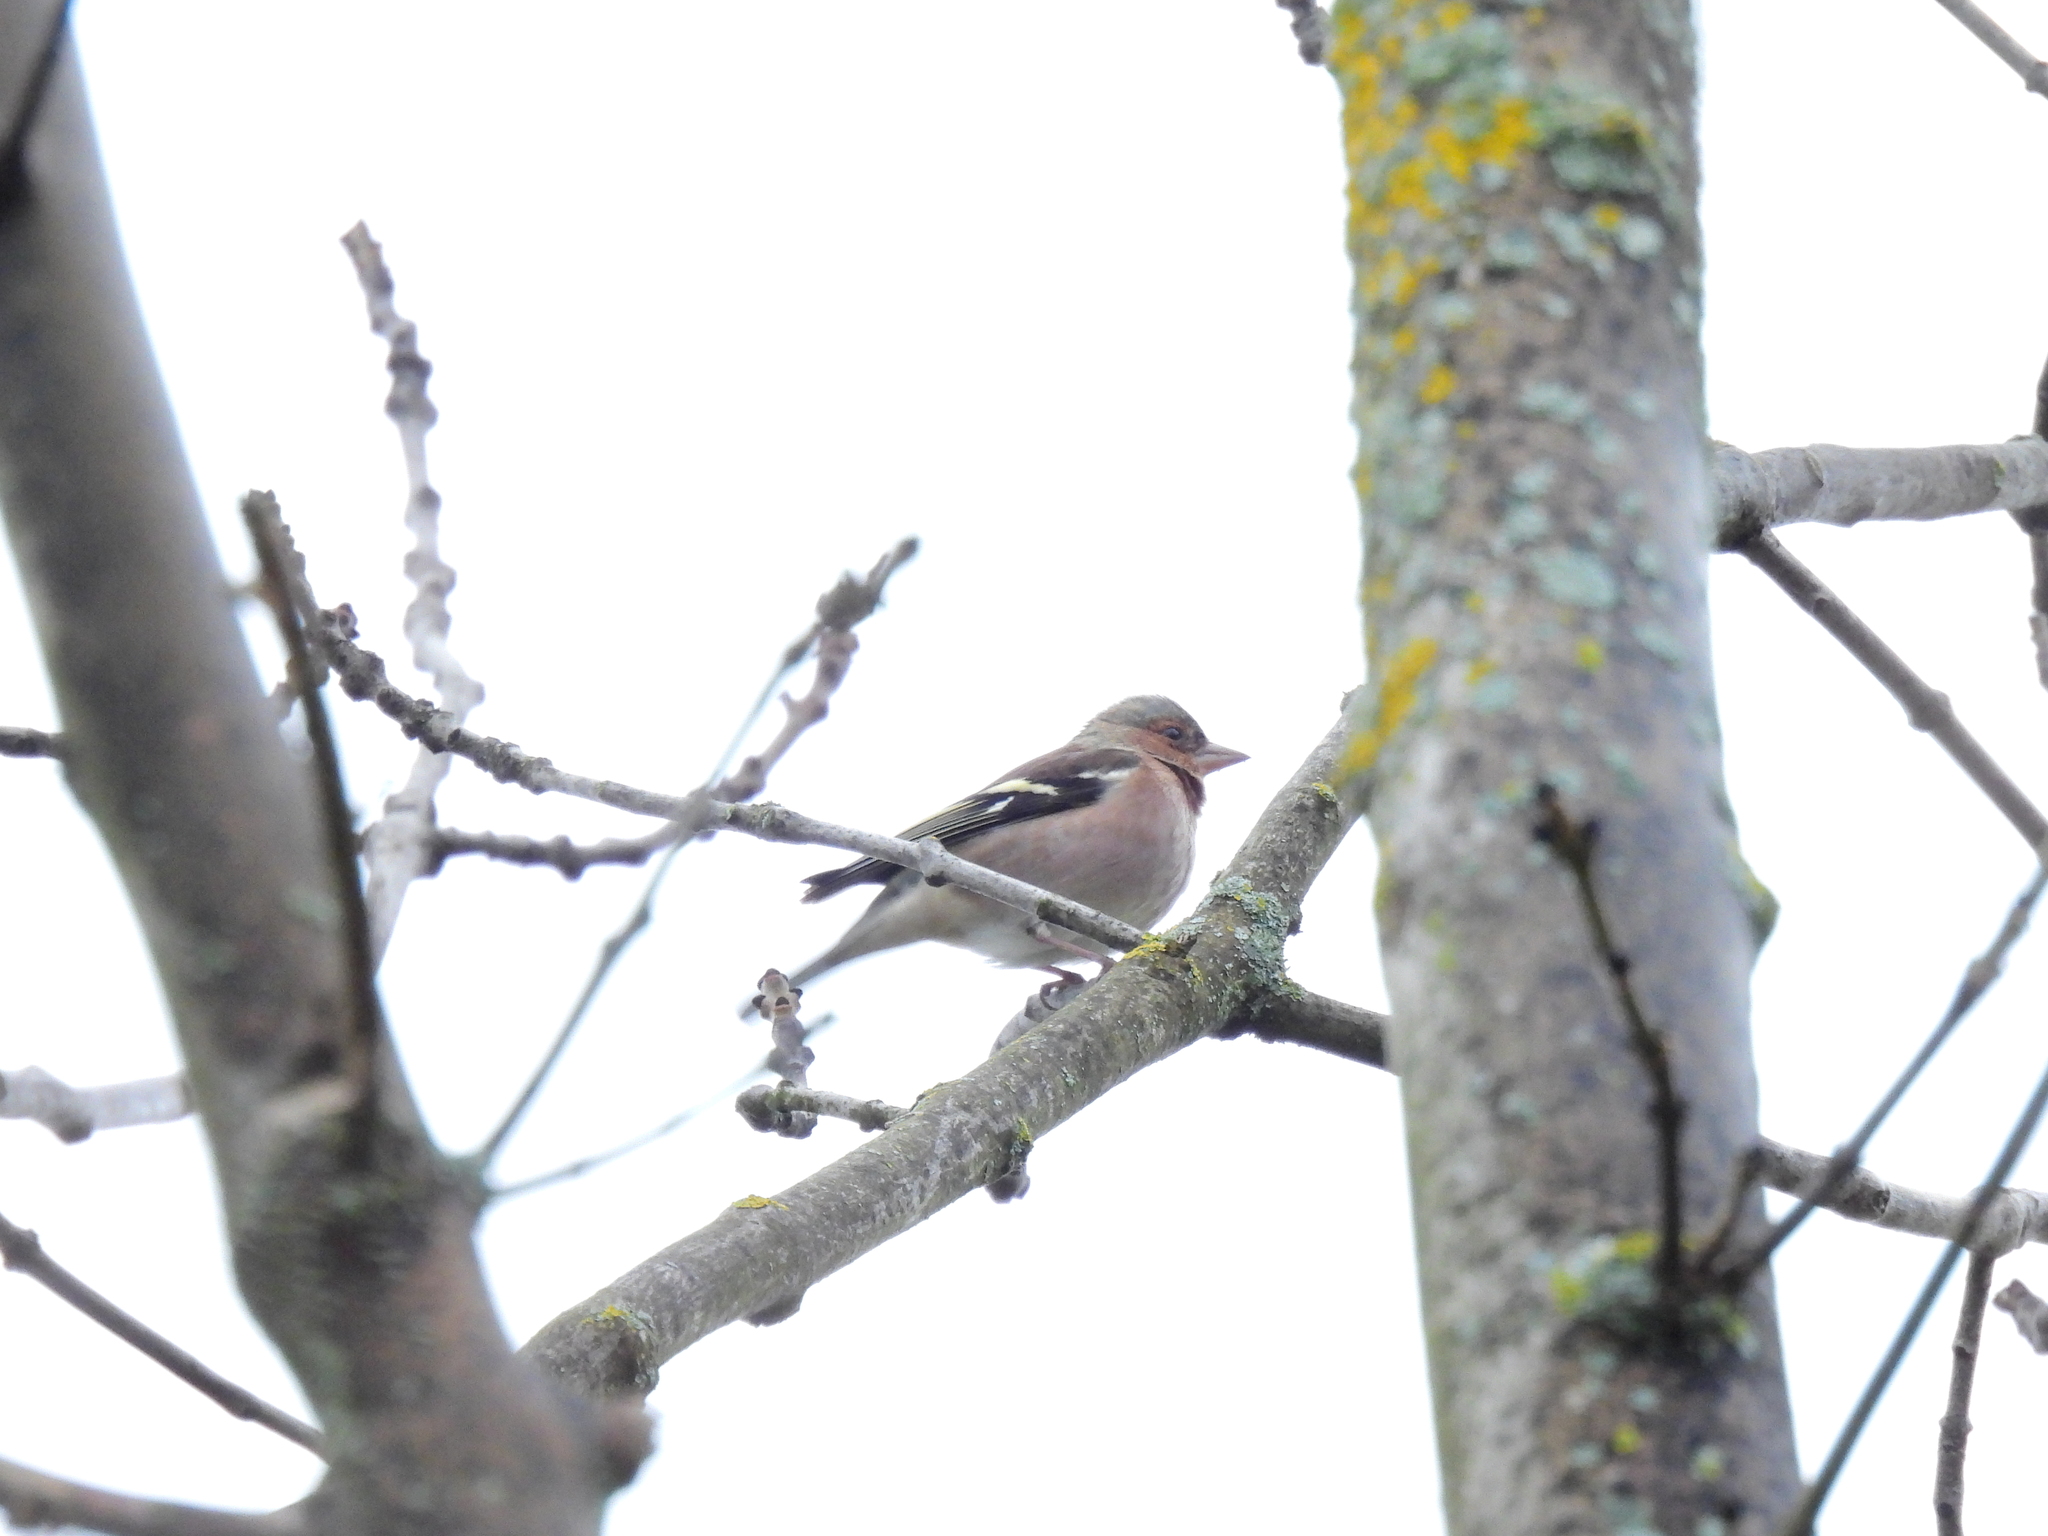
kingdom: Animalia
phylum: Chordata
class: Aves
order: Passeriformes
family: Fringillidae
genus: Fringilla
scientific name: Fringilla coelebs
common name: Common chaffinch
